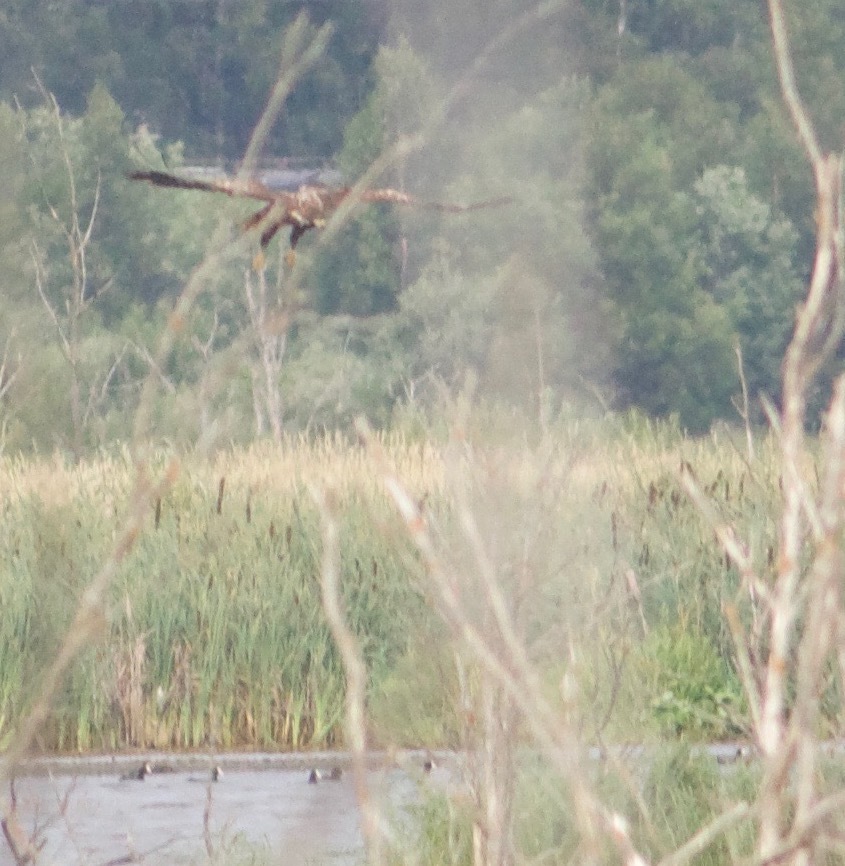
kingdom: Animalia
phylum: Chordata
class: Aves
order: Accipitriformes
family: Accipitridae
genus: Haliaeetus
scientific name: Haliaeetus albicilla
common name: White-tailed eagle
